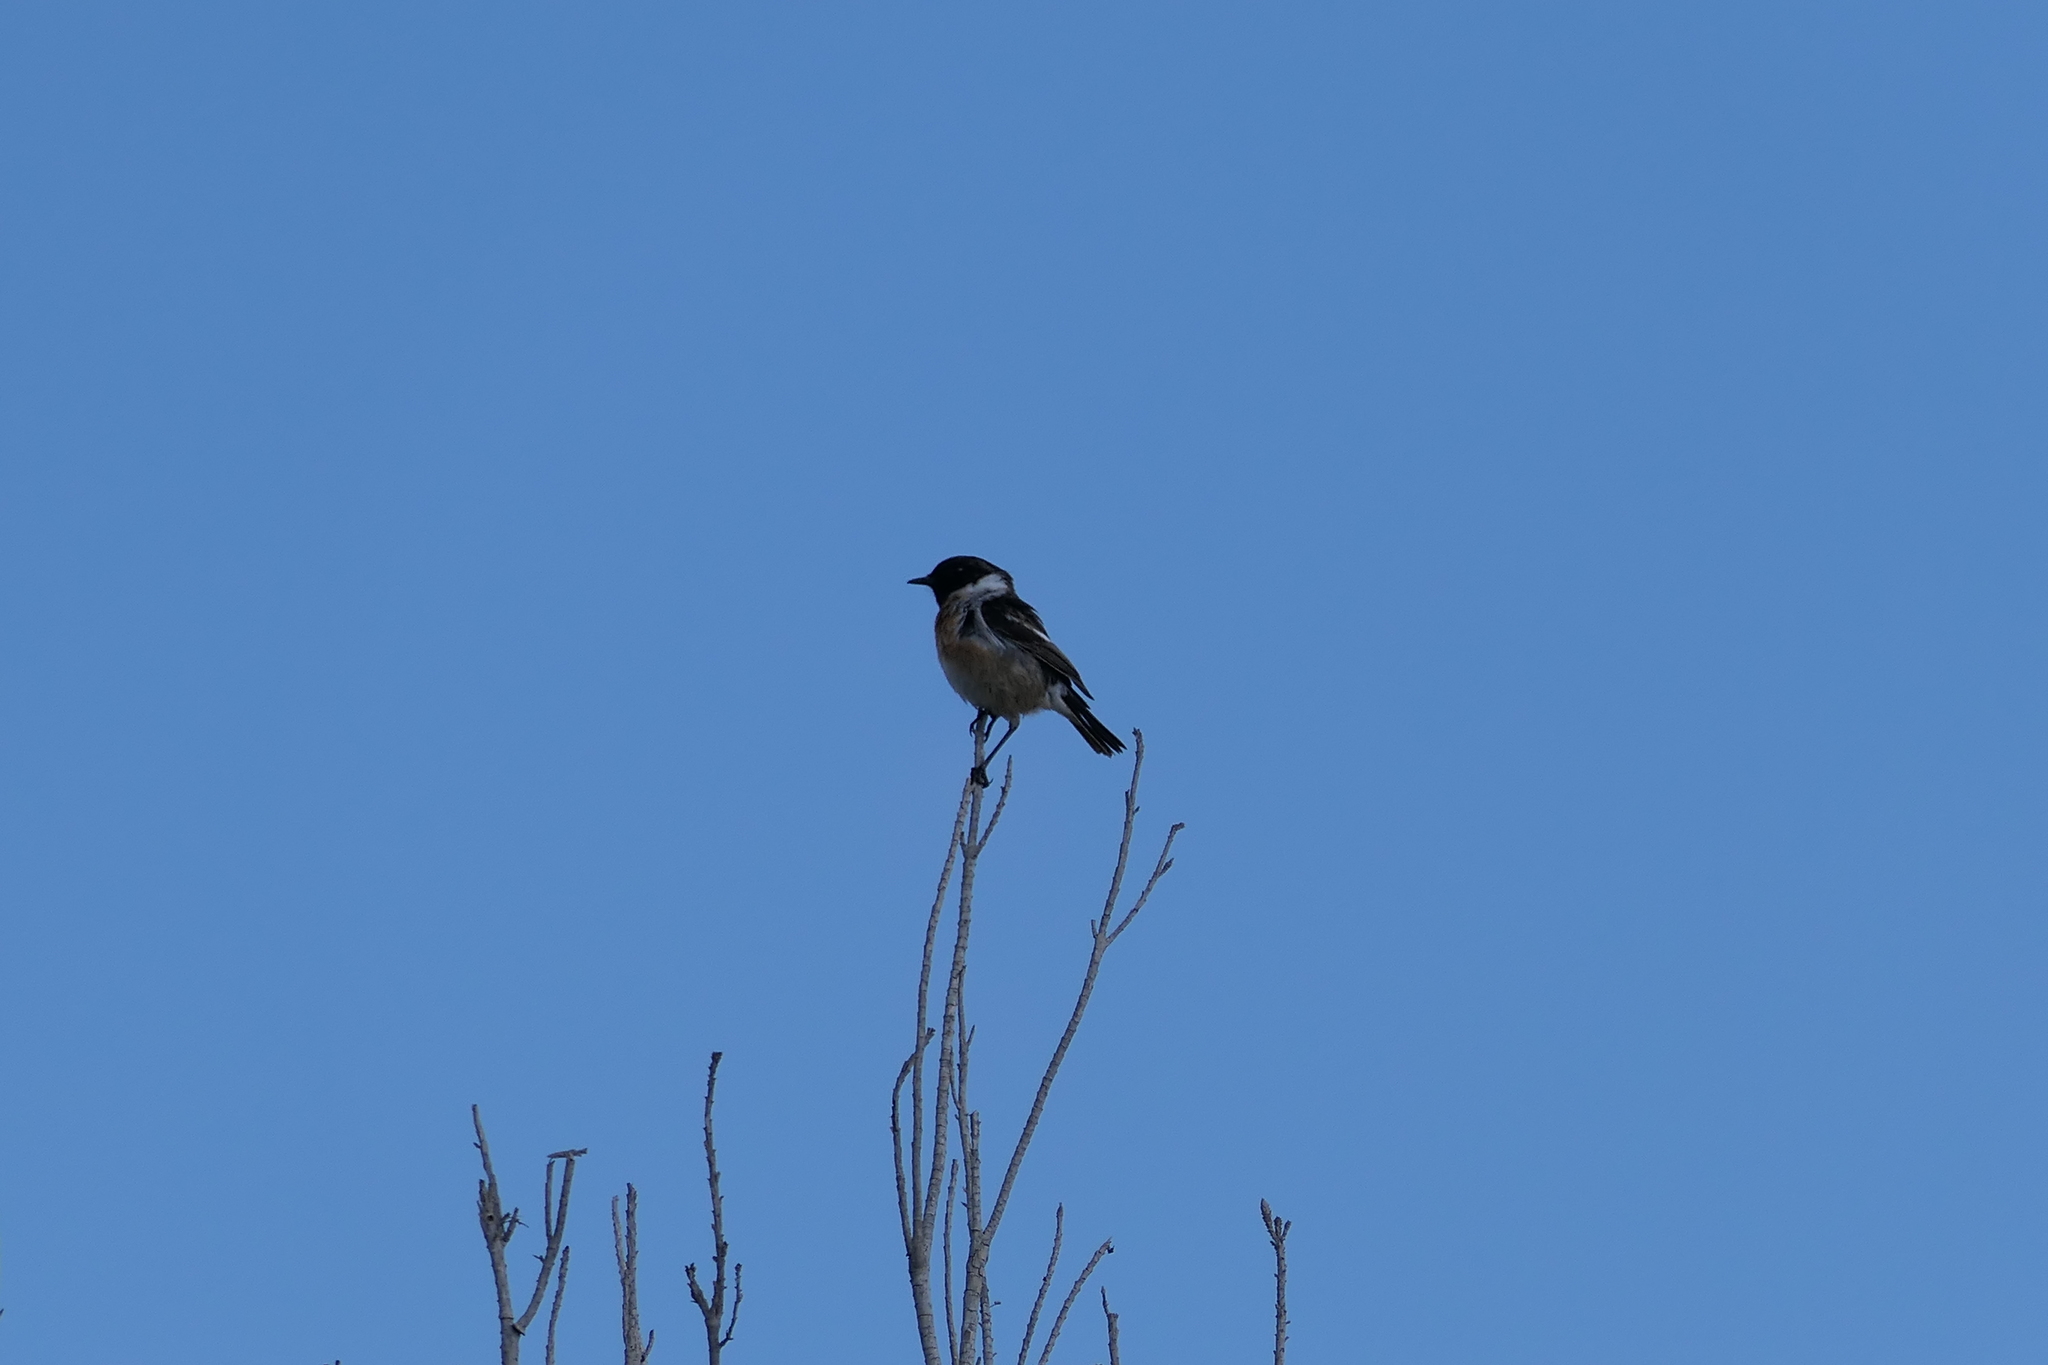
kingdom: Animalia
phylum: Chordata
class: Aves
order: Passeriformes
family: Muscicapidae
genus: Saxicola
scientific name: Saxicola rubicola
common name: European stonechat
